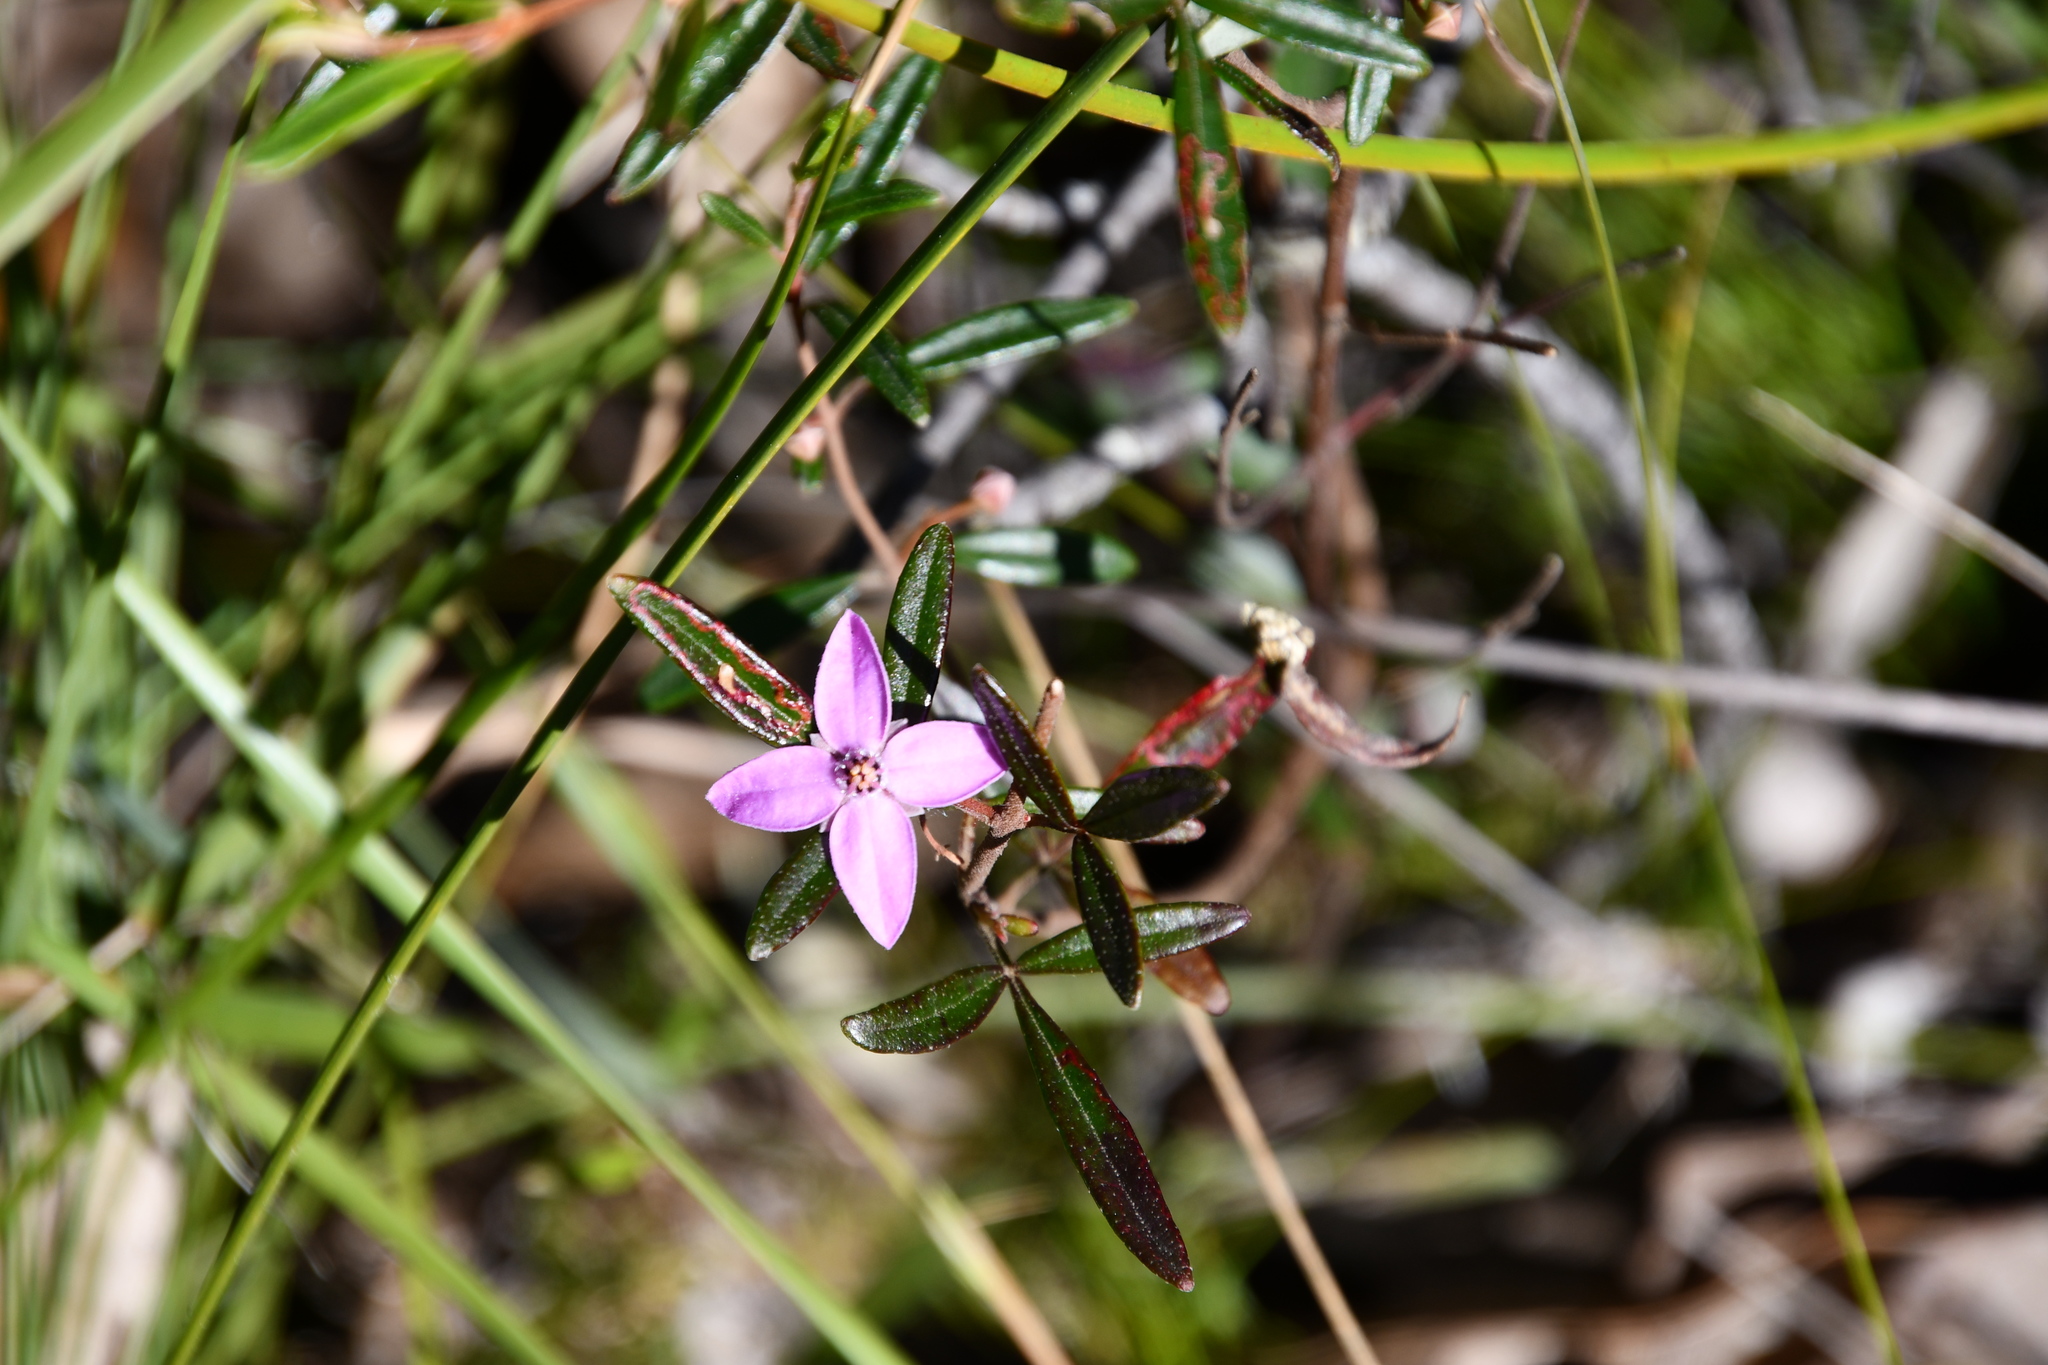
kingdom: Plantae
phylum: Tracheophyta
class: Magnoliopsida
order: Sapindales
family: Rutaceae
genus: Boronia
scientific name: Boronia ledifolia
